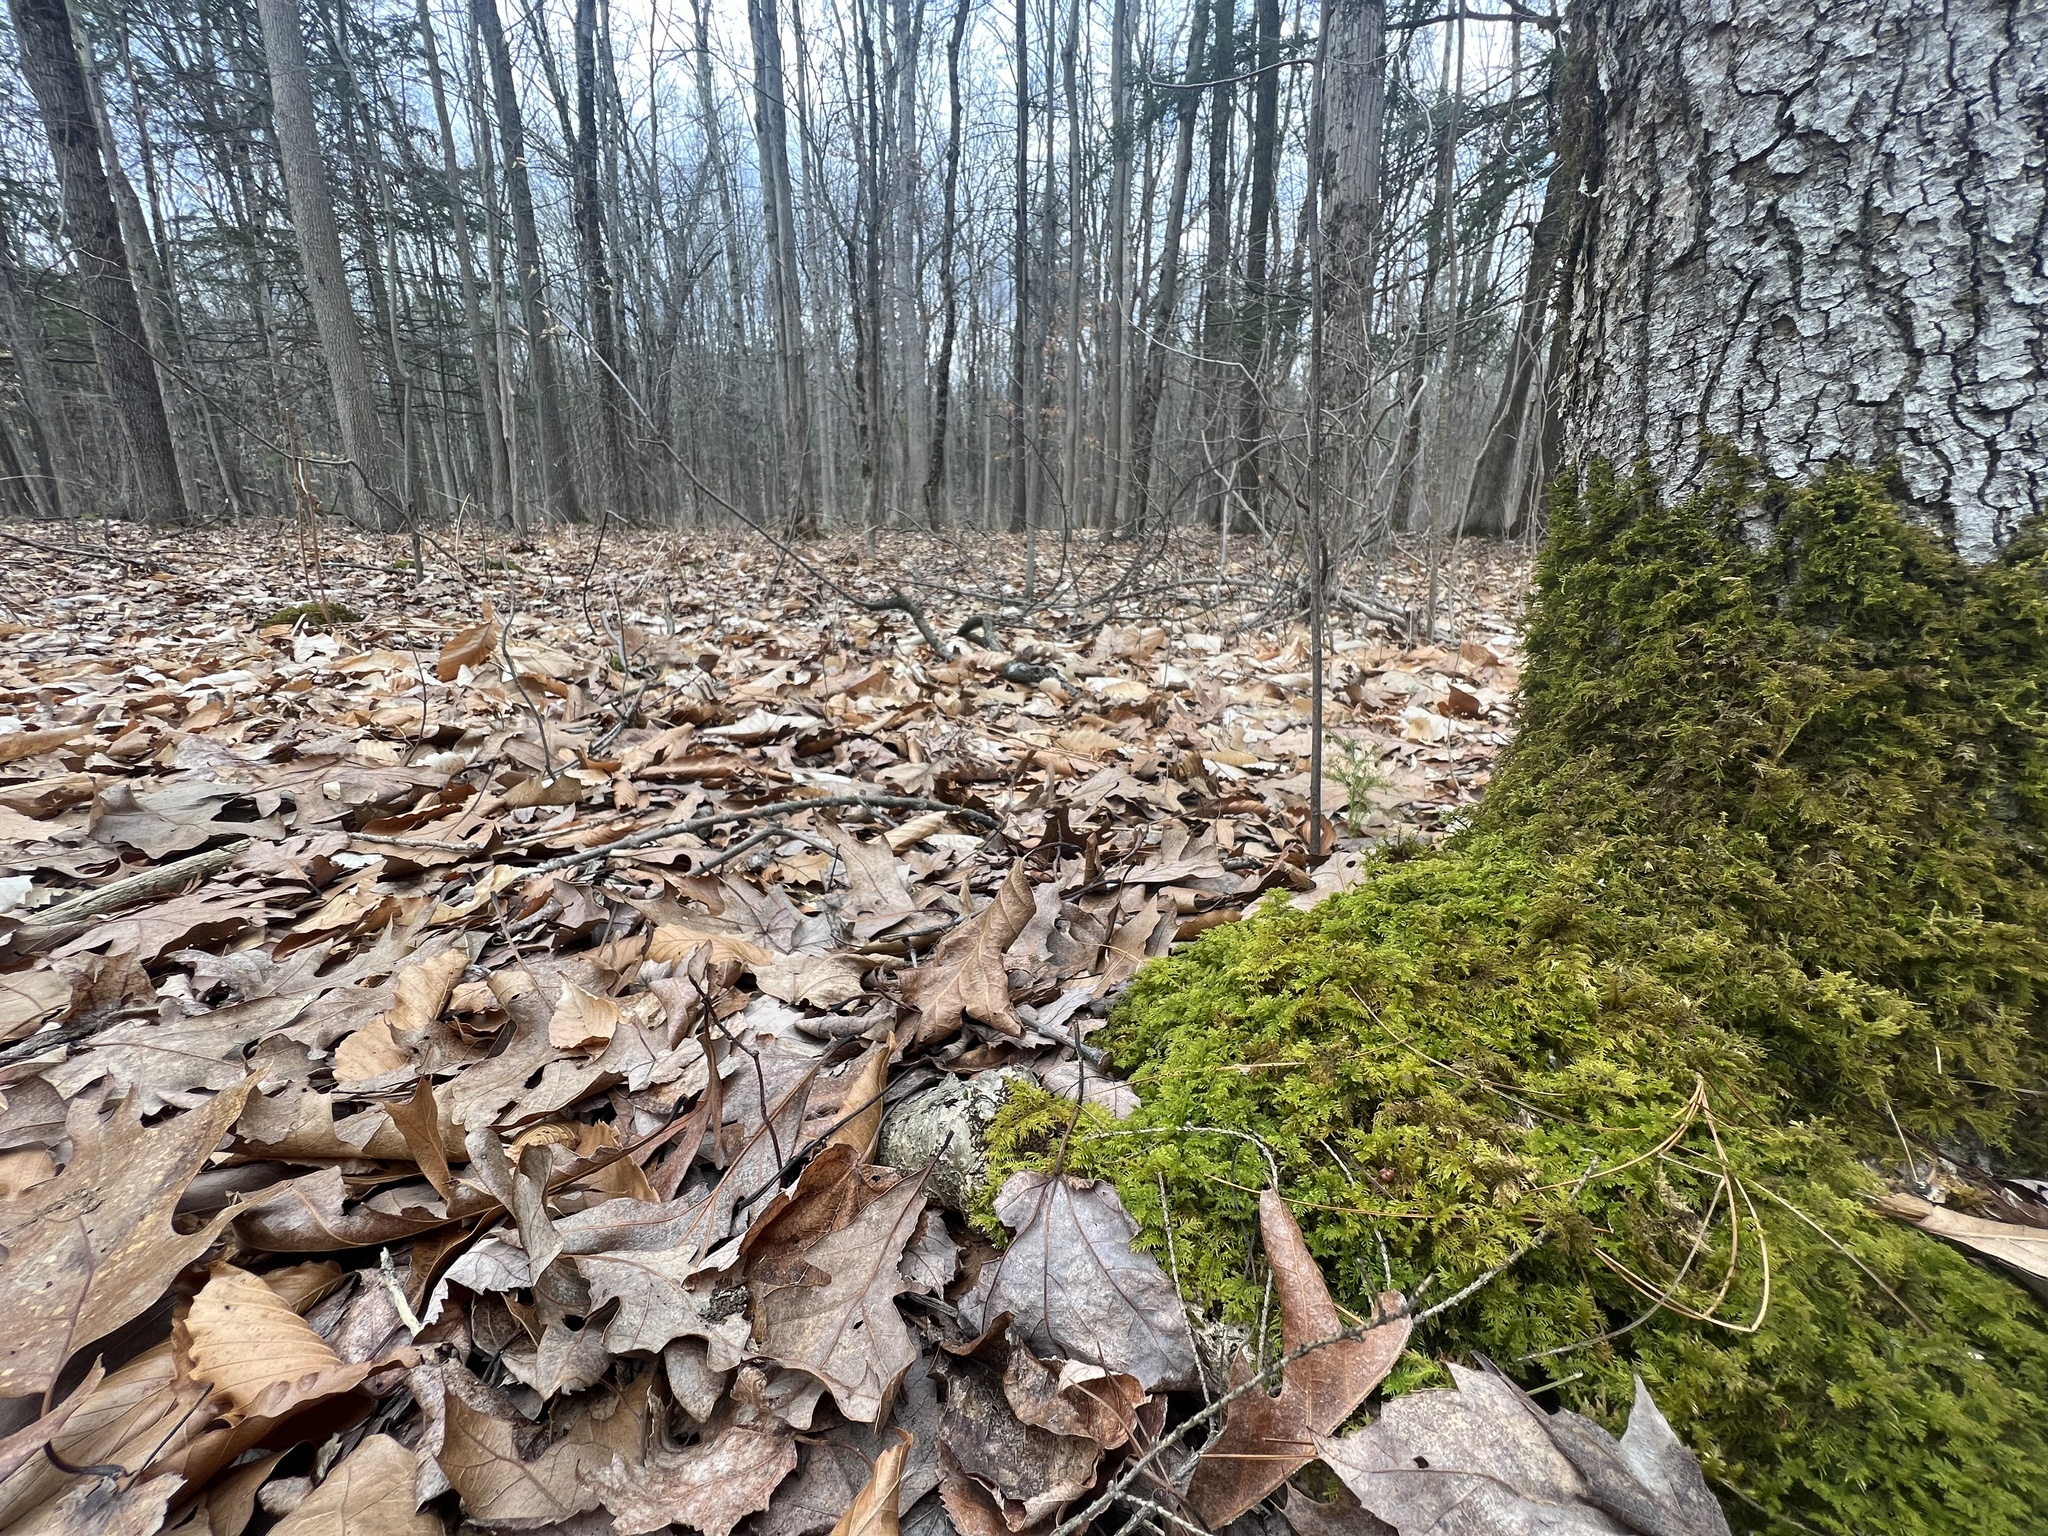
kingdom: Plantae
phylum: Bryophyta
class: Bryopsida
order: Hypnales
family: Thuidiaceae
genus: Thuidium
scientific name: Thuidium delicatulum
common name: Delicate fern moss
